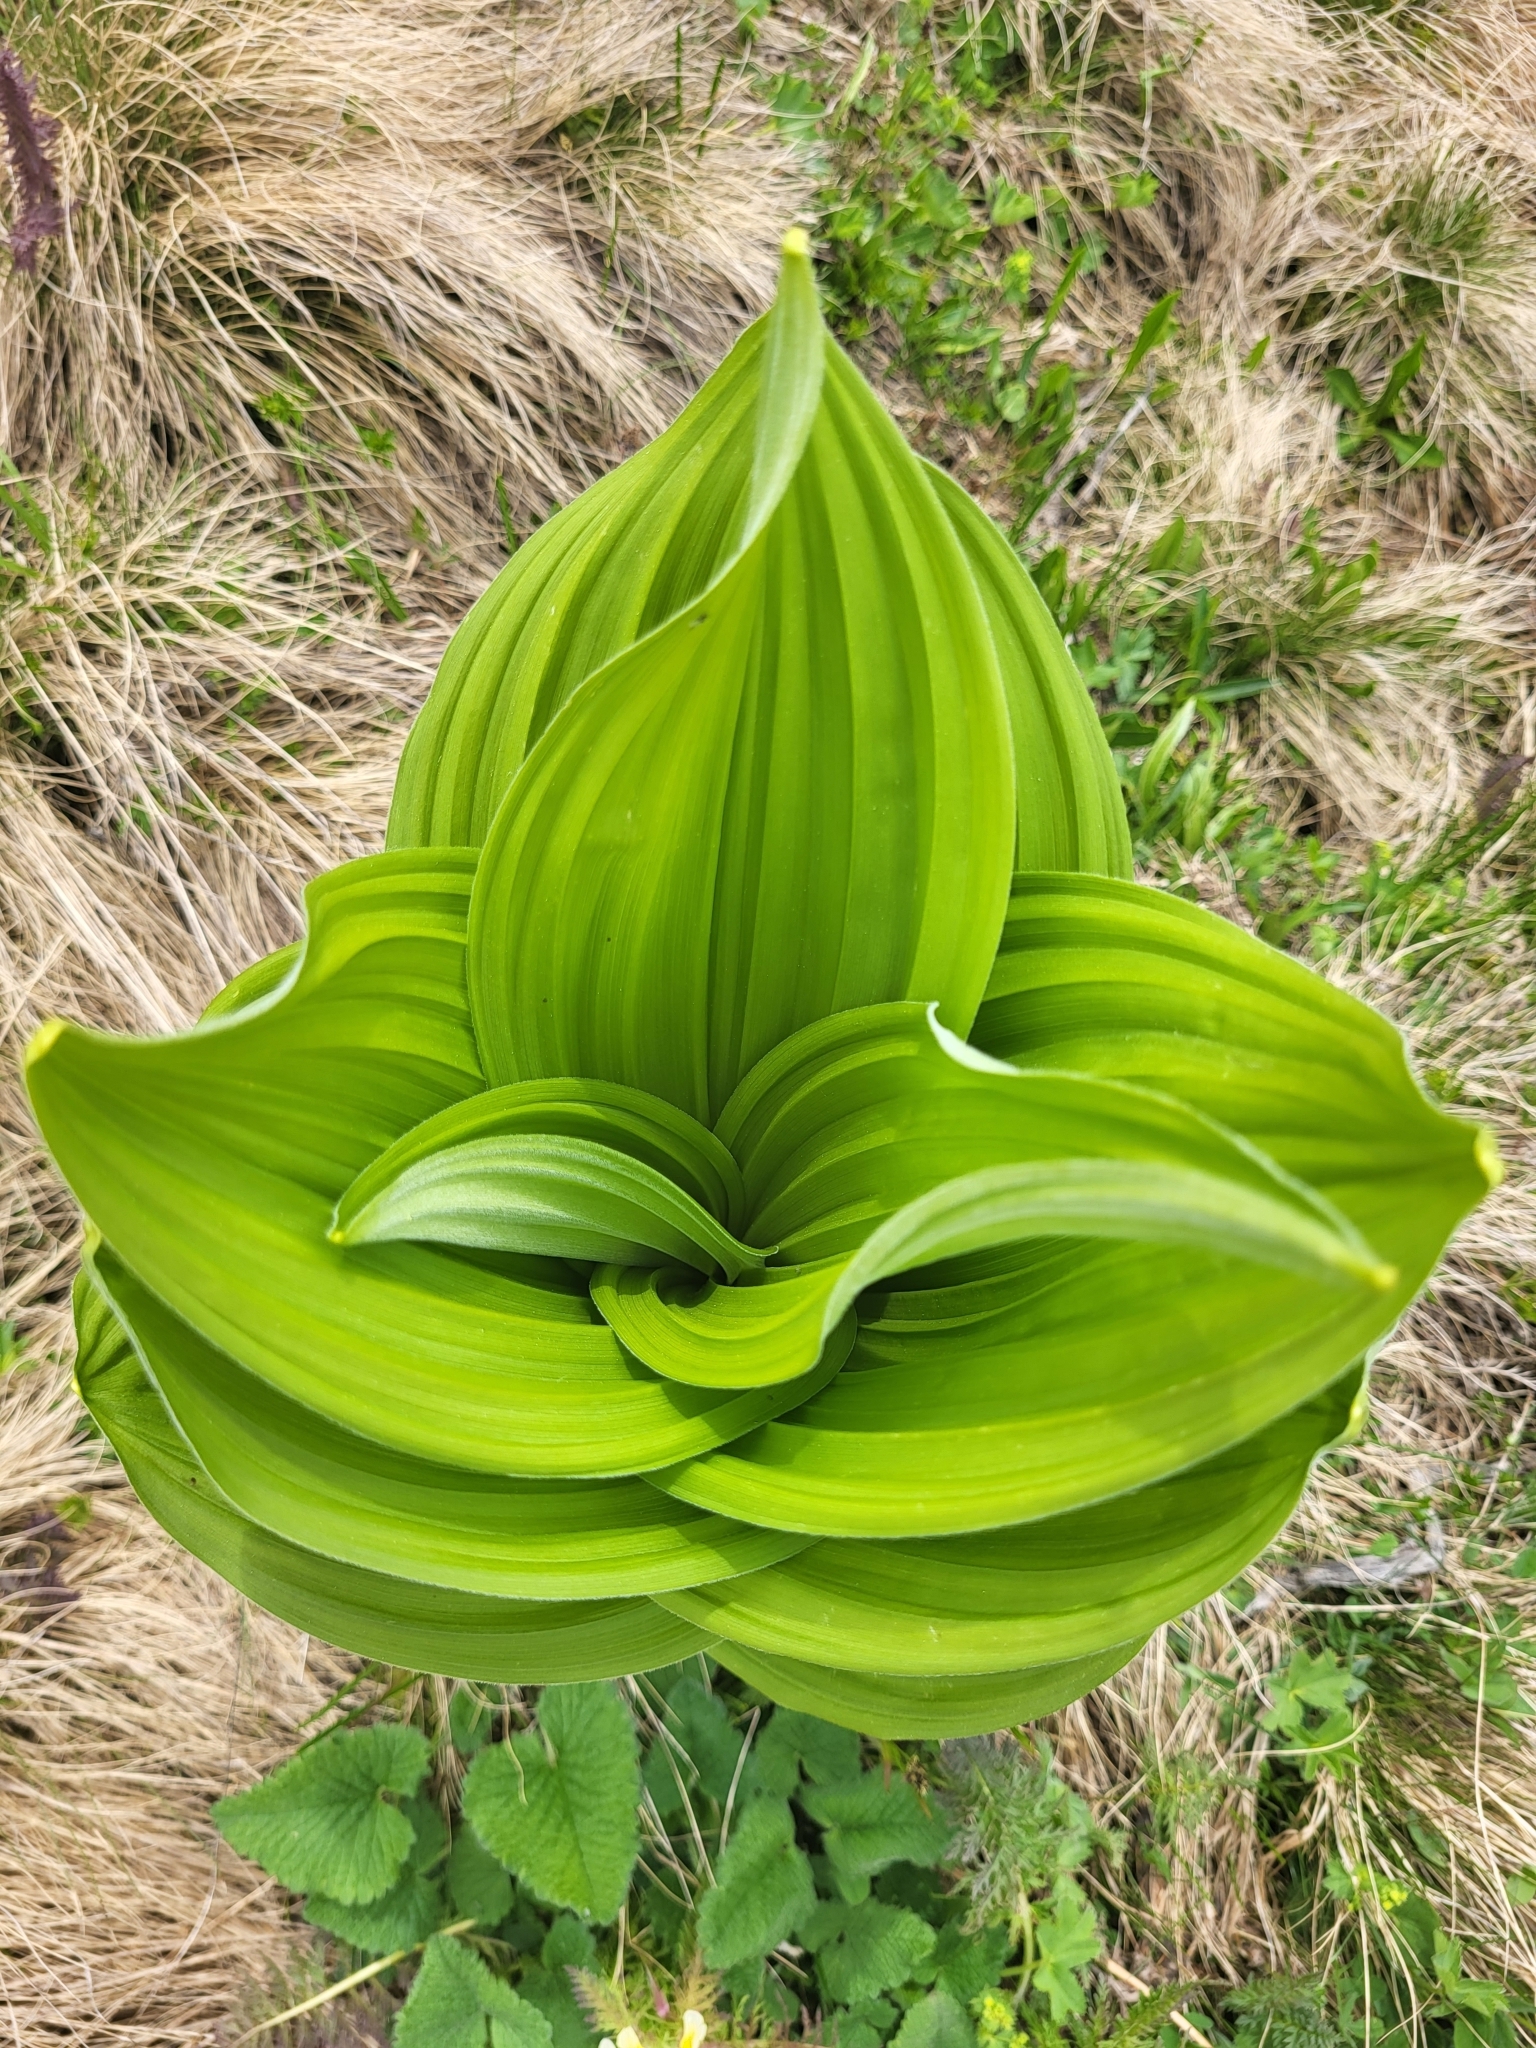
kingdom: Plantae
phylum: Tracheophyta
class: Liliopsida
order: Liliales
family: Melanthiaceae
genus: Veratrum
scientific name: Veratrum lobelianum
